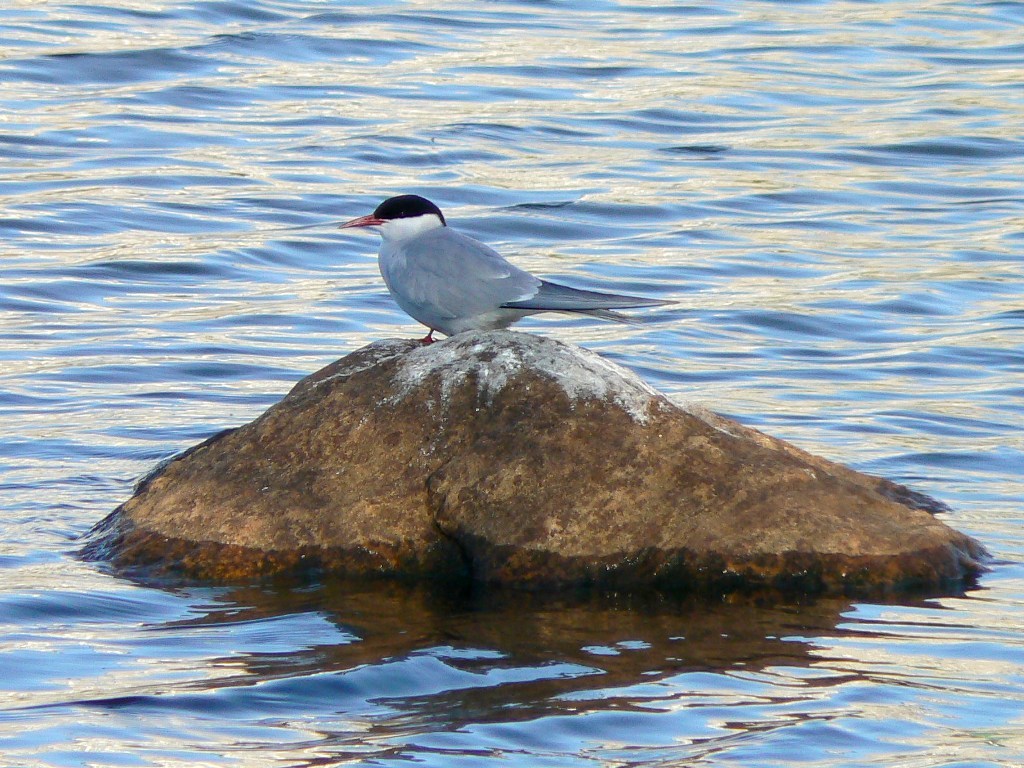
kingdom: Animalia
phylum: Chordata
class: Aves
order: Charadriiformes
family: Laridae
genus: Sterna
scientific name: Sterna paradisaea
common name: Arctic tern
